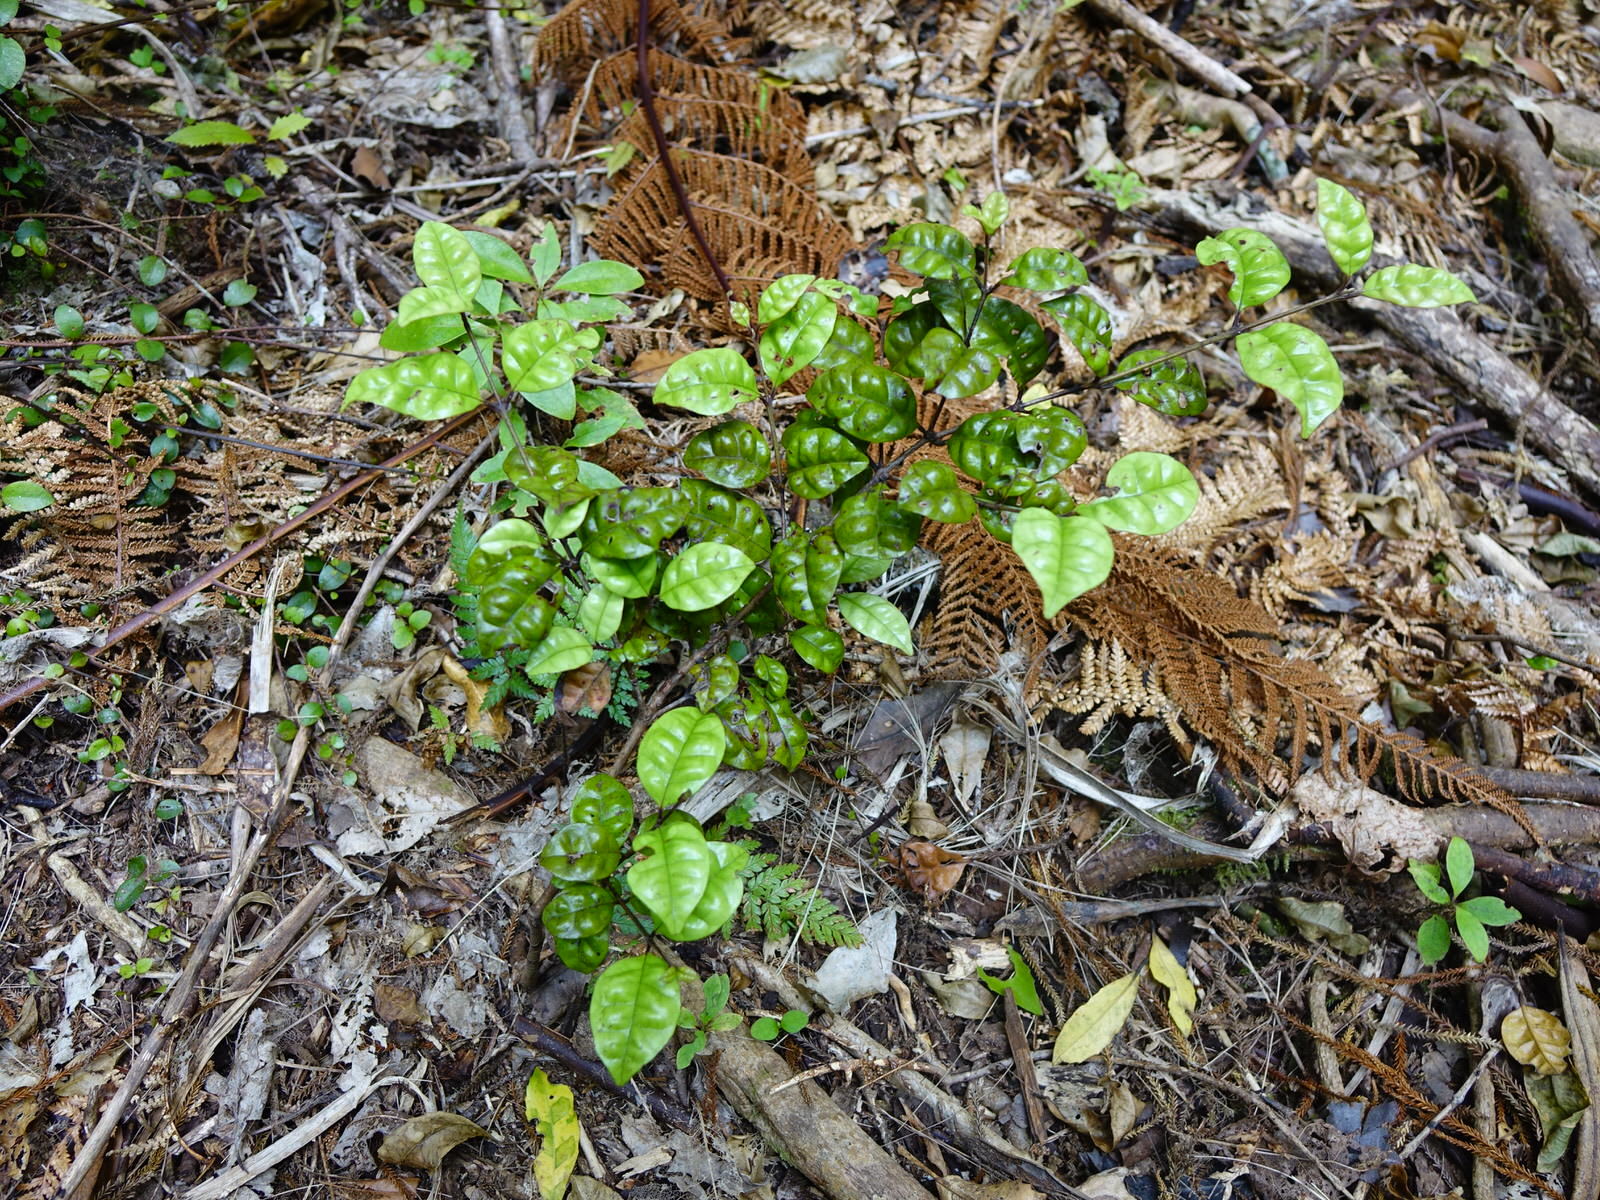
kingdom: Plantae
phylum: Tracheophyta
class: Magnoliopsida
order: Myrtales
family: Myrtaceae
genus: Lophomyrtus
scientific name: Lophomyrtus bullata
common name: Rama rama
